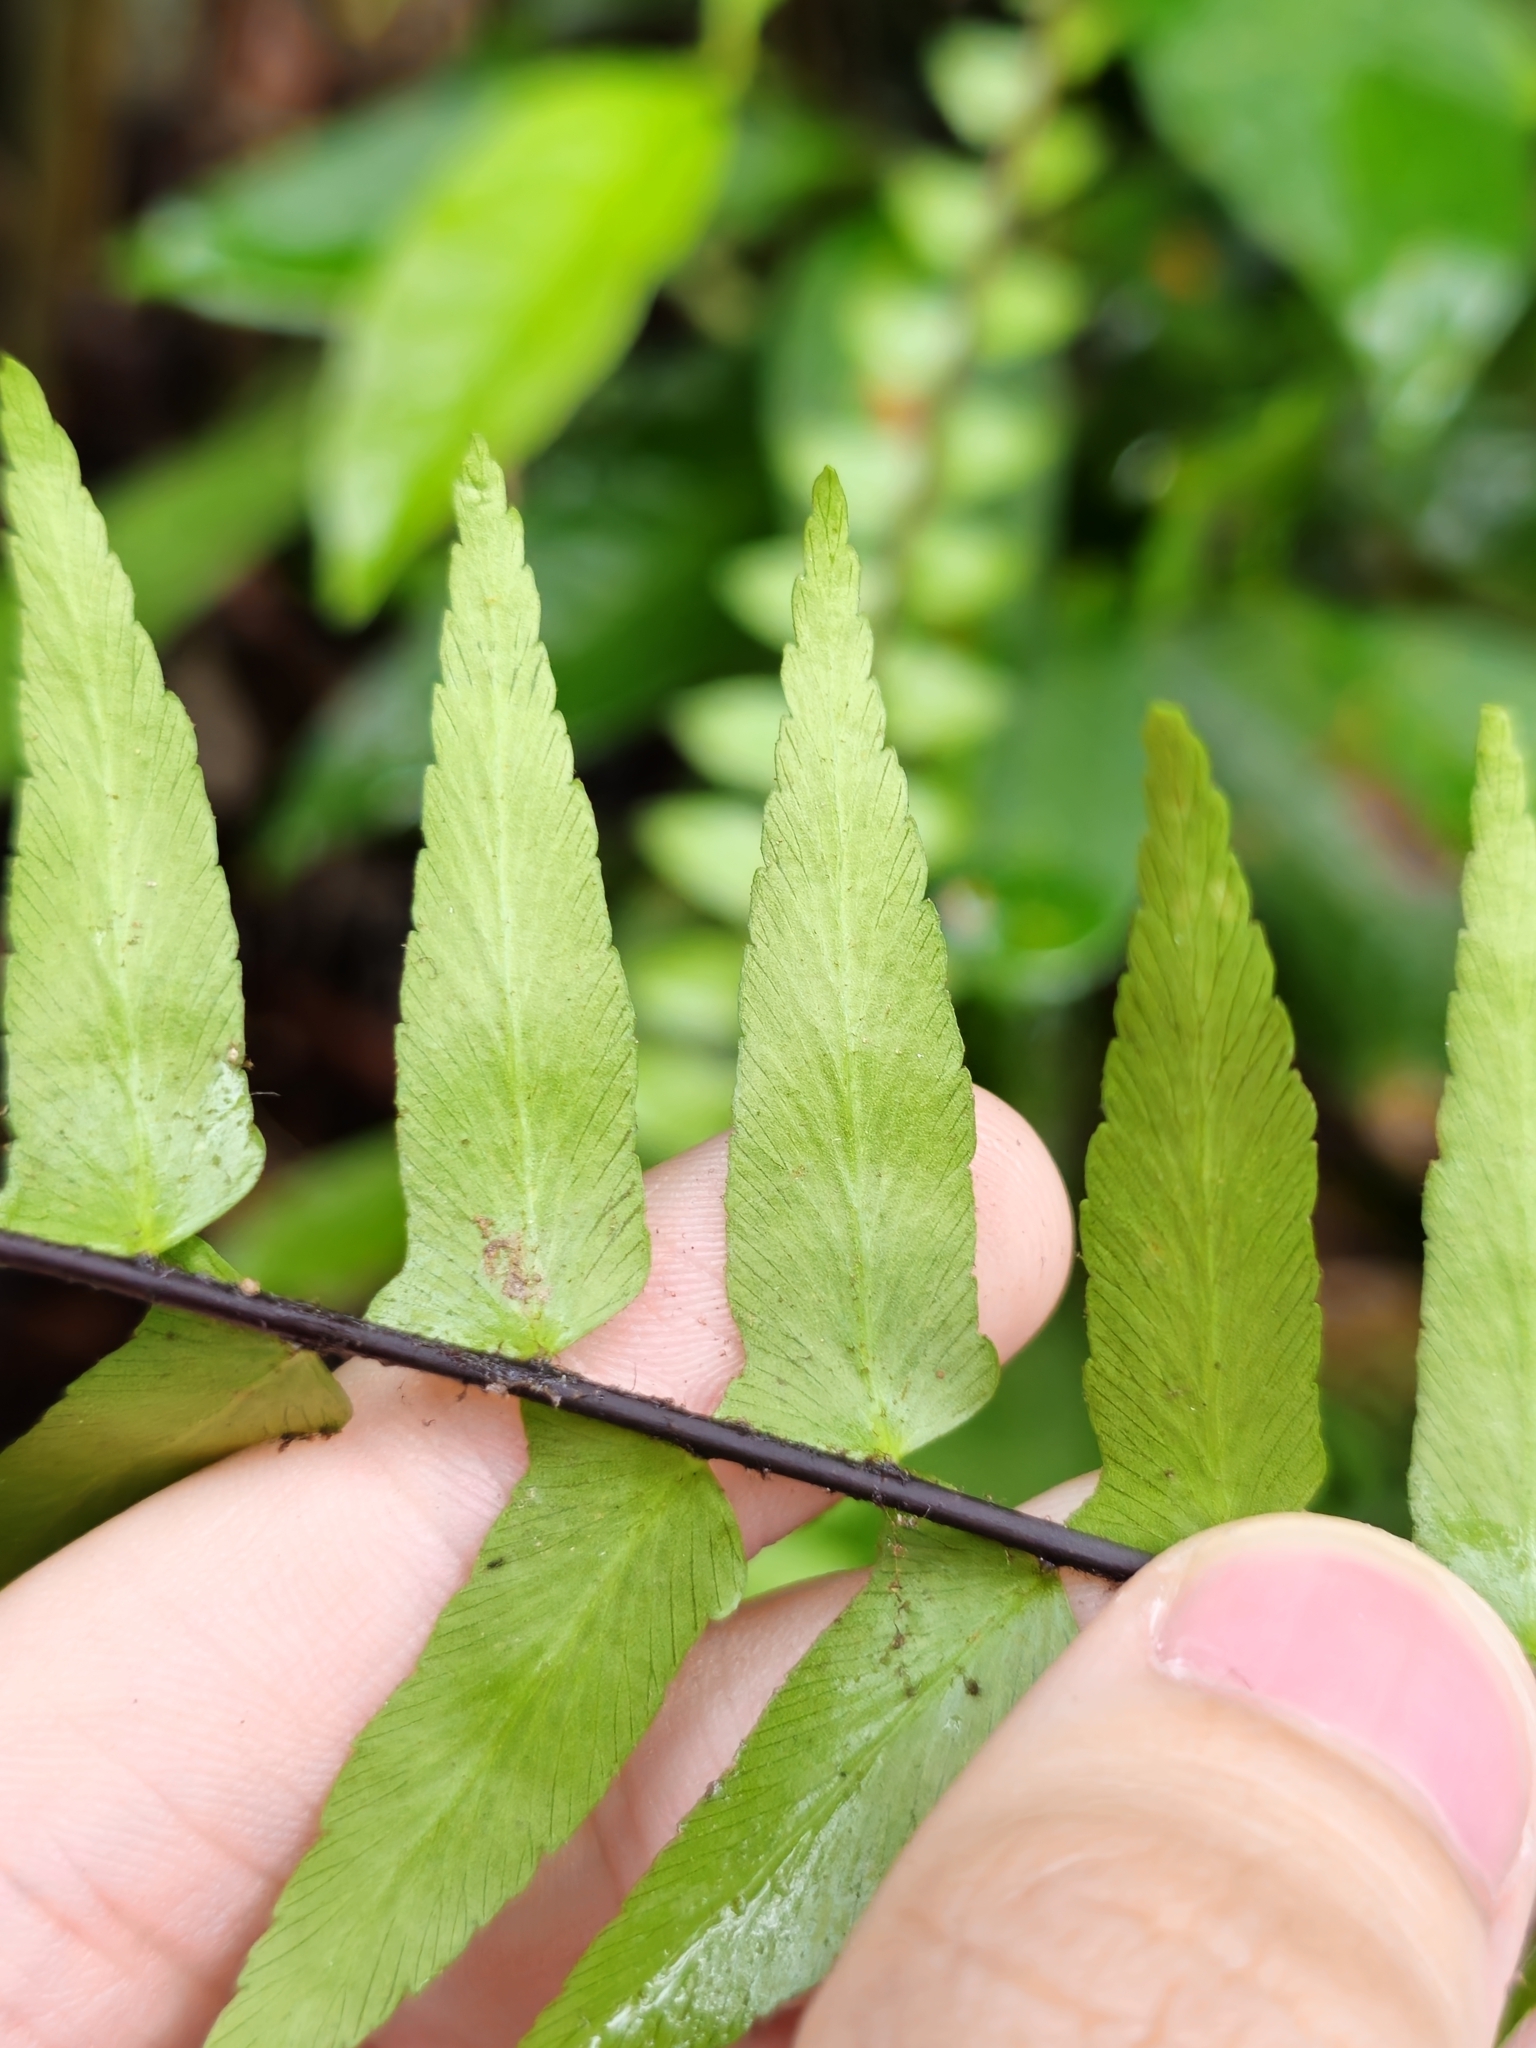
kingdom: Plantae
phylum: Tracheophyta
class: Polypodiopsida
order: Polypodiales
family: Aspleniaceae
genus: Asplenium
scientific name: Asplenium longissimum
